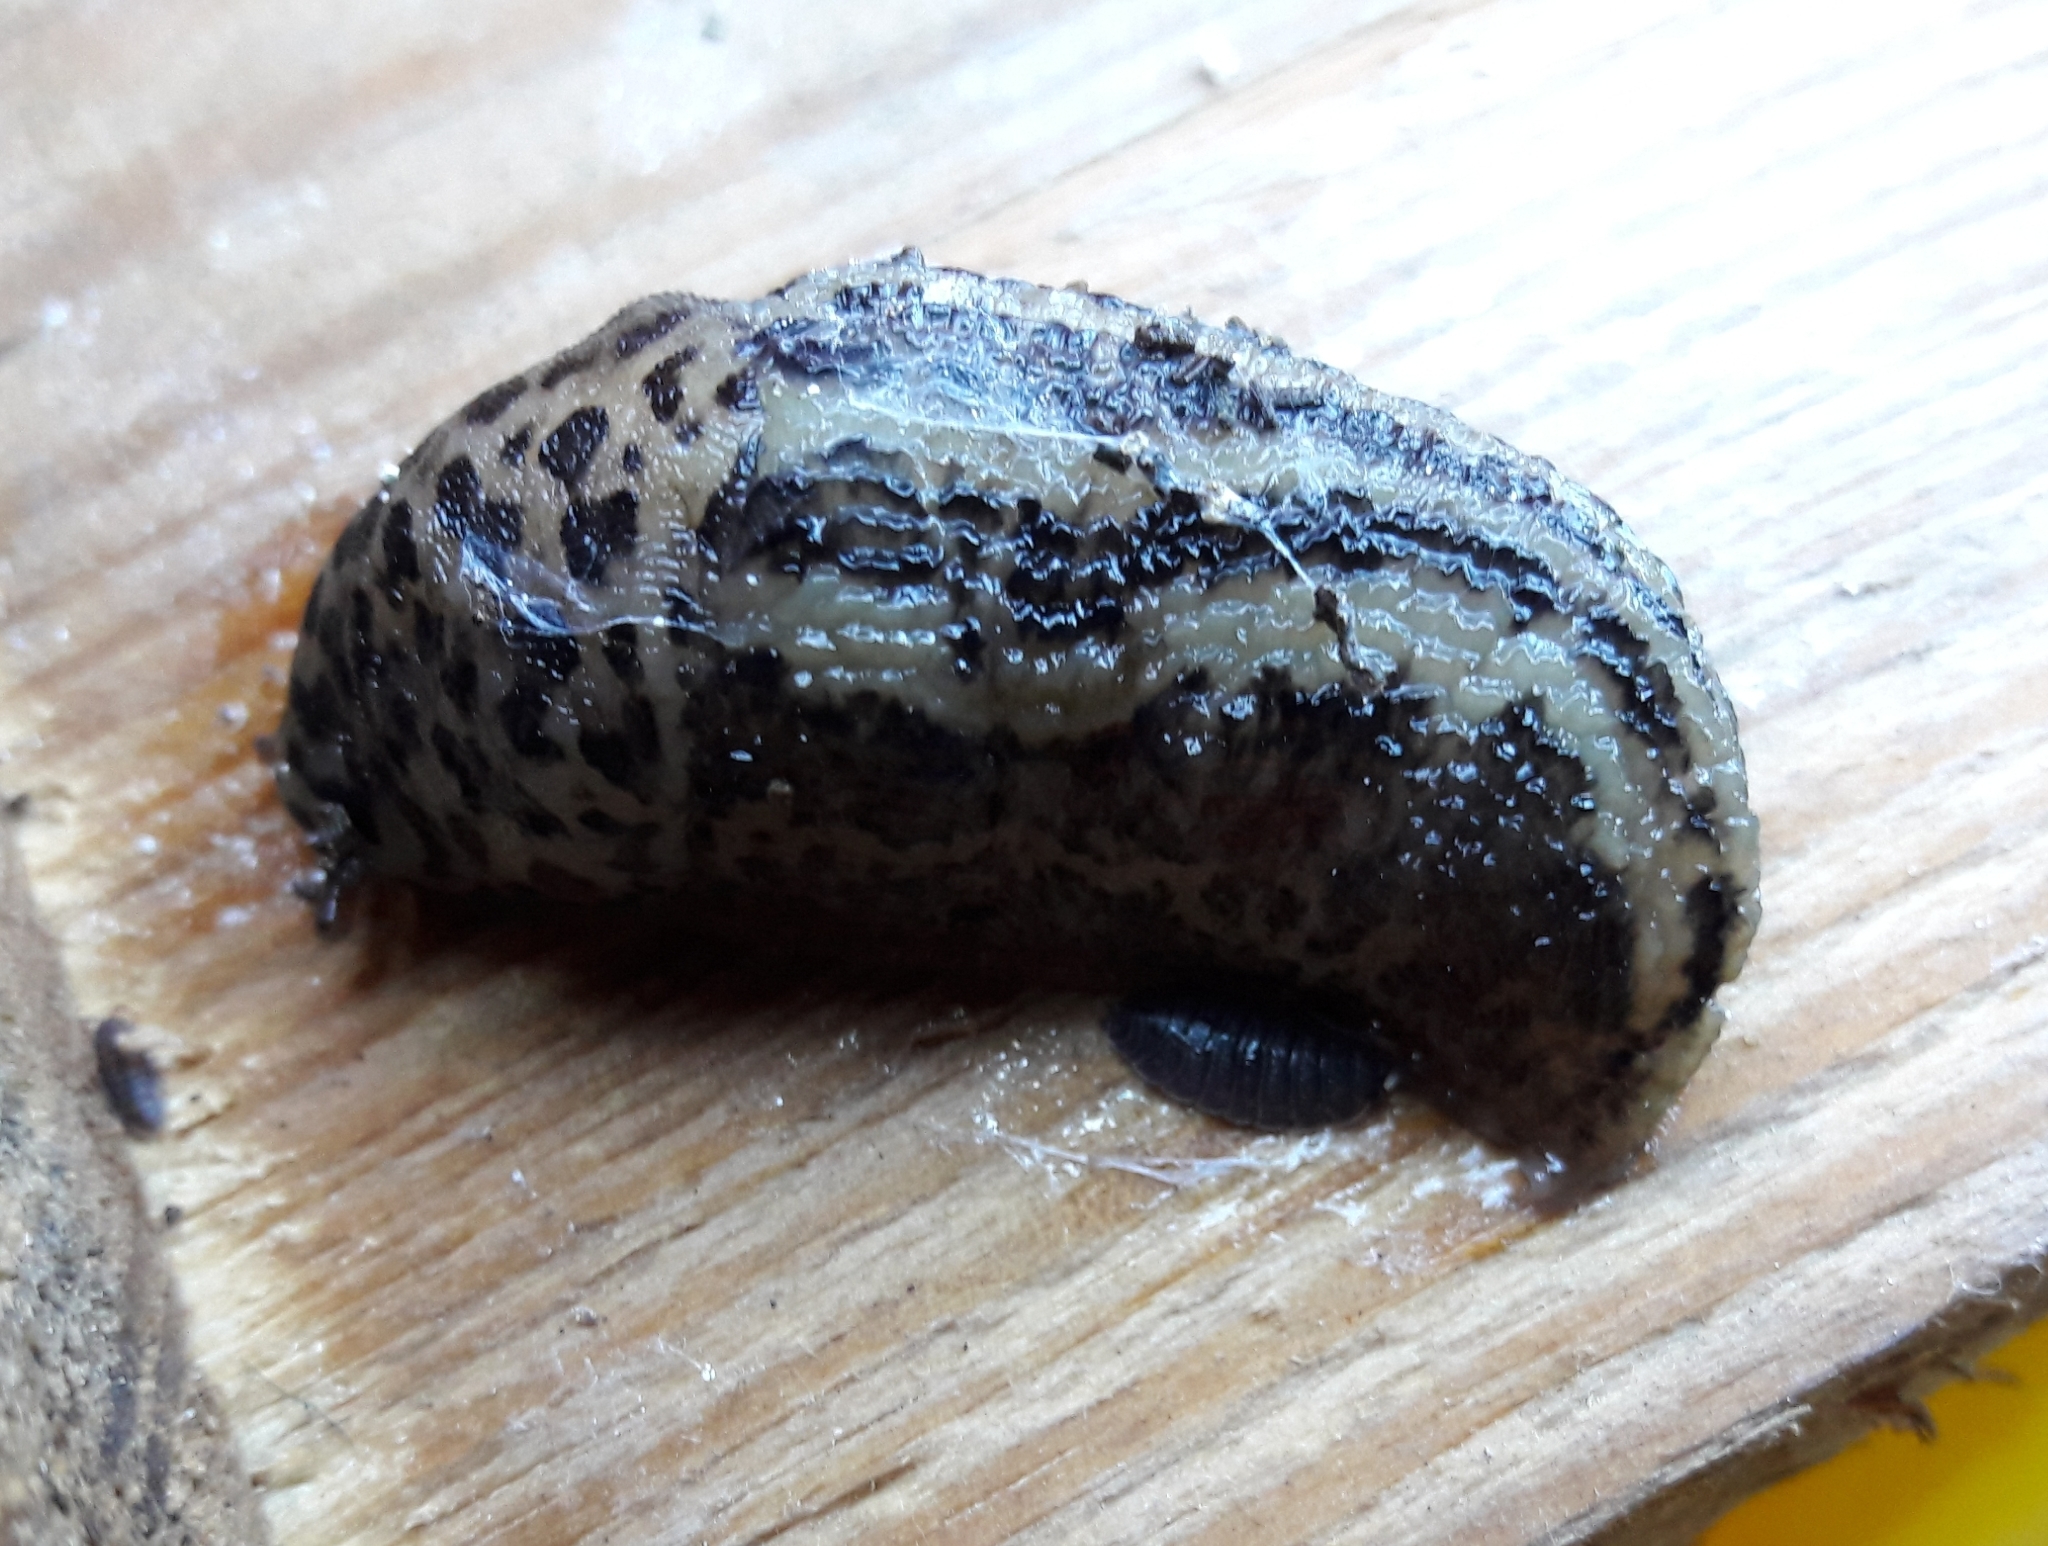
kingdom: Animalia
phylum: Mollusca
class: Gastropoda
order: Stylommatophora
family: Limacidae
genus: Limax
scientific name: Limax maximus
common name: Great grey slug
